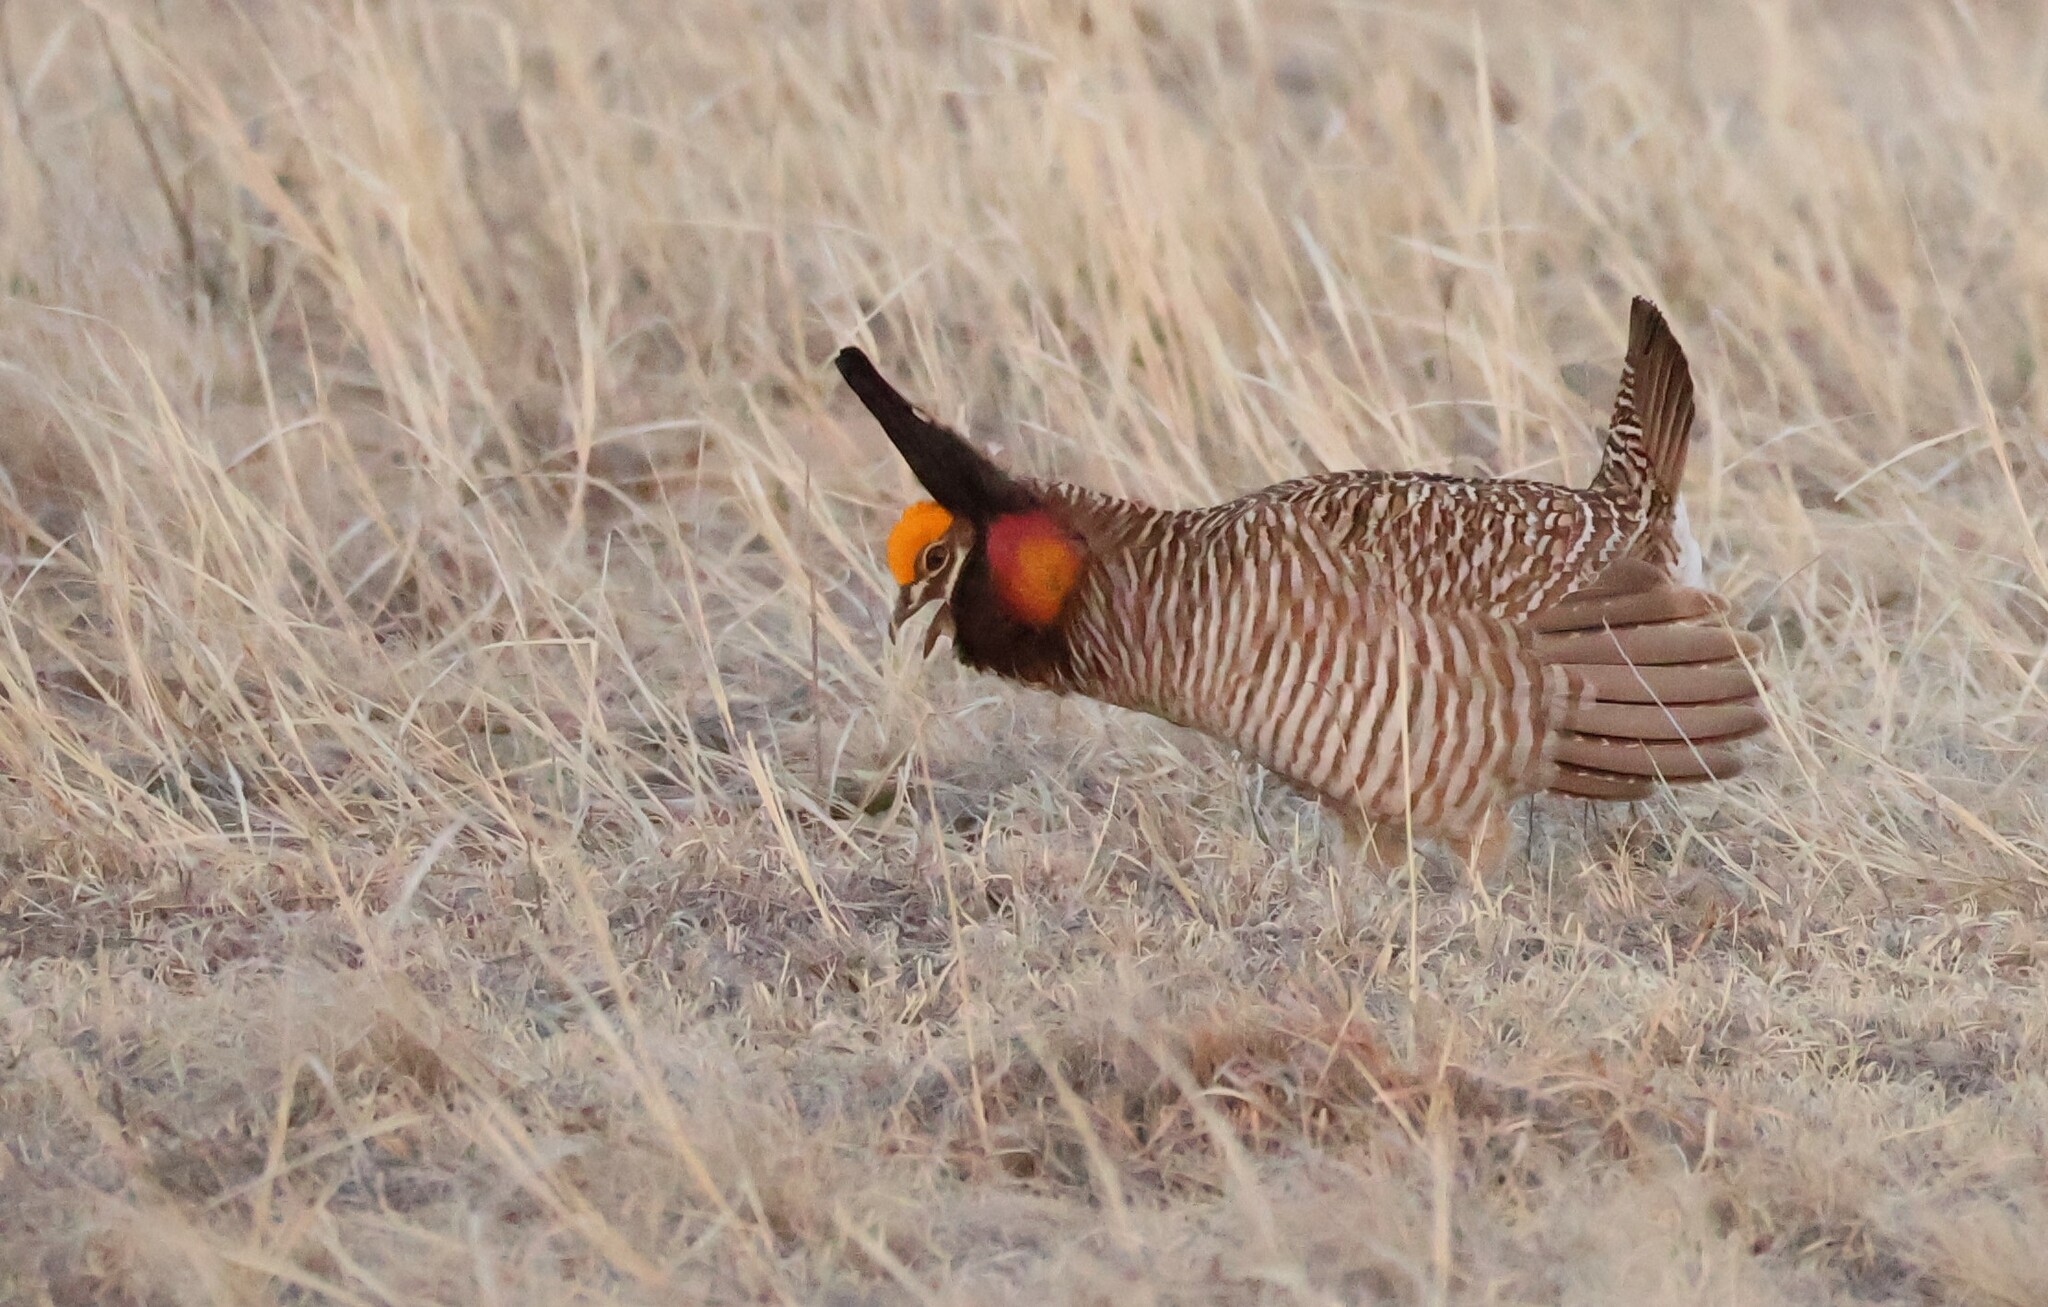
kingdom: Animalia
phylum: Chordata
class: Aves
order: Galliformes
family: Phasianidae
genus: Tympanuchus
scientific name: Tympanuchus pallidicinctus
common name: Lesser prairie chicken
